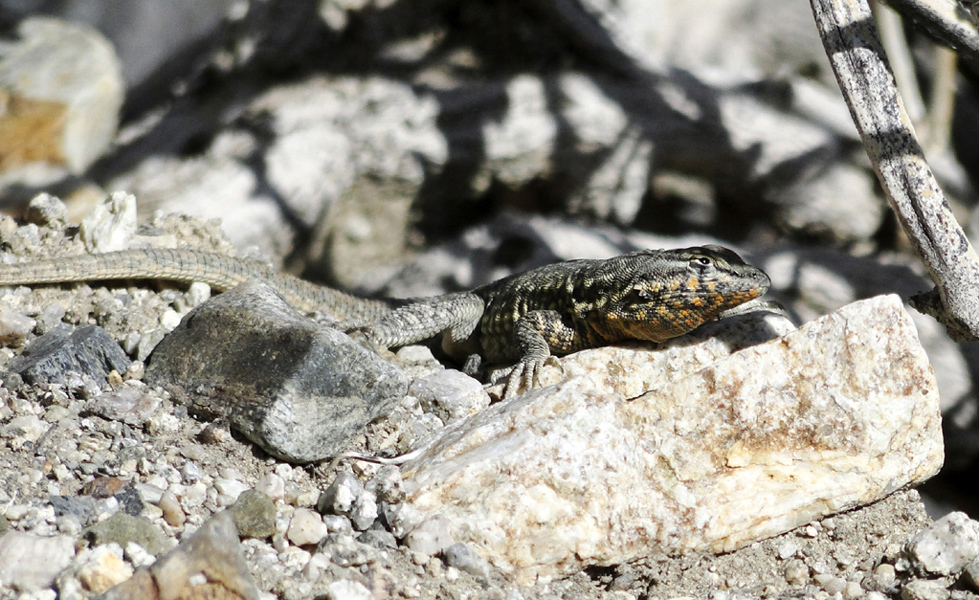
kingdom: Animalia
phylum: Chordata
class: Squamata
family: Phrynosomatidae
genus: Uta
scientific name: Uta stansburiana
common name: Side-blotched lizard
